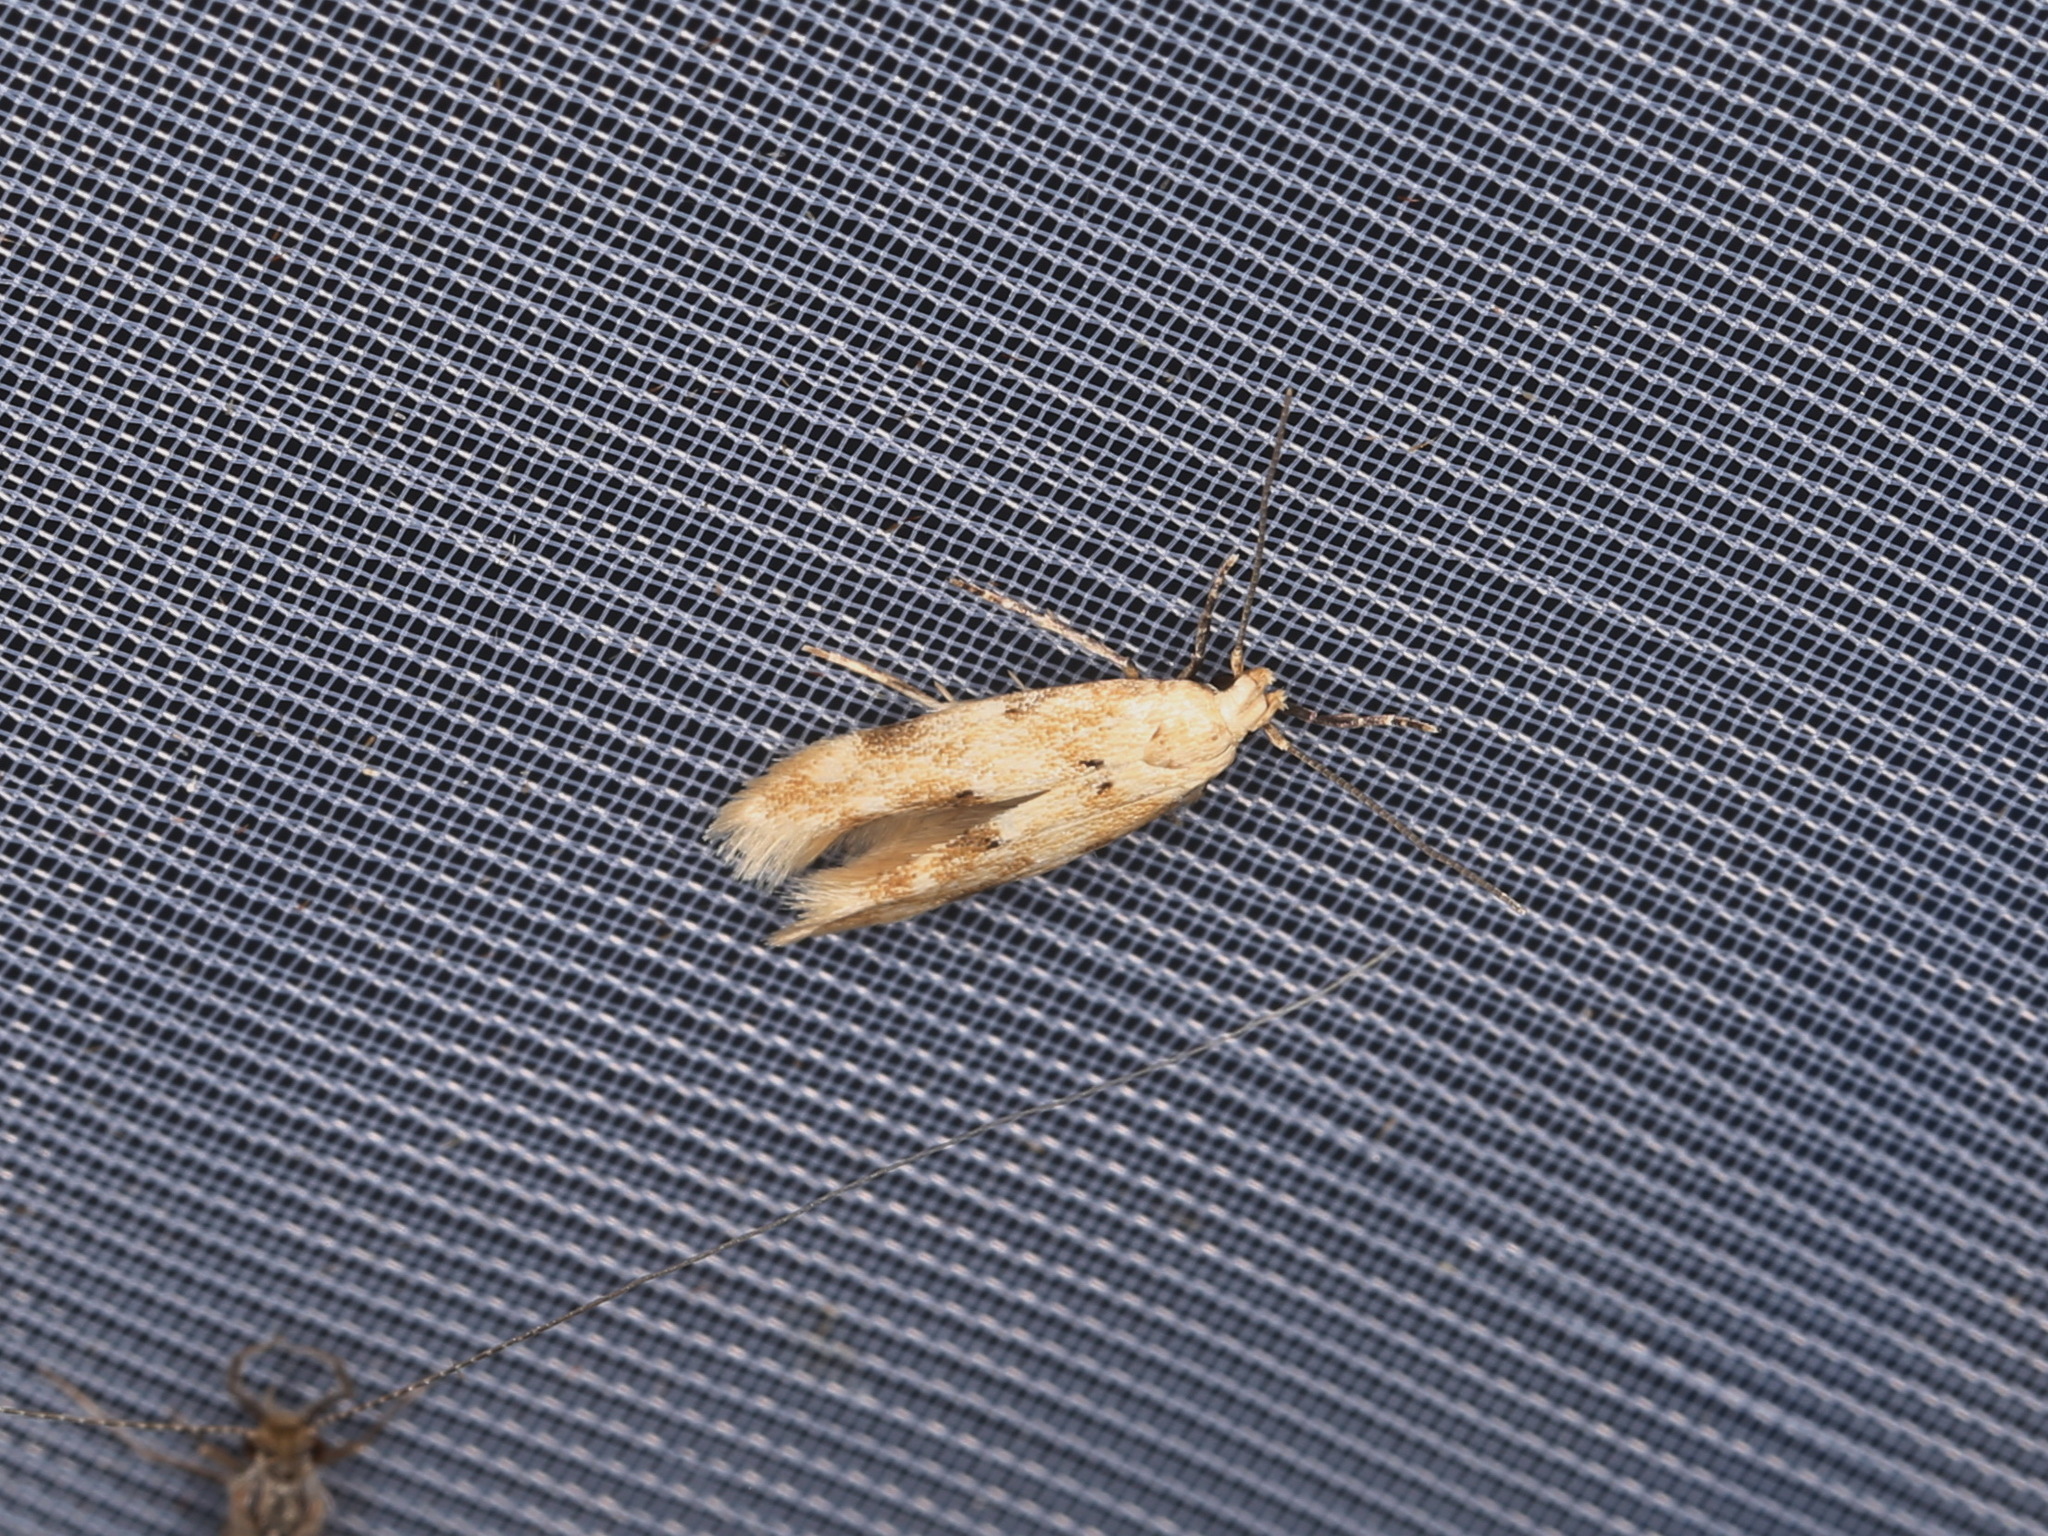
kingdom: Animalia
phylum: Arthropoda
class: Insecta
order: Lepidoptera
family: Momphidae
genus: Mompha
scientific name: Mompha epilobiella
